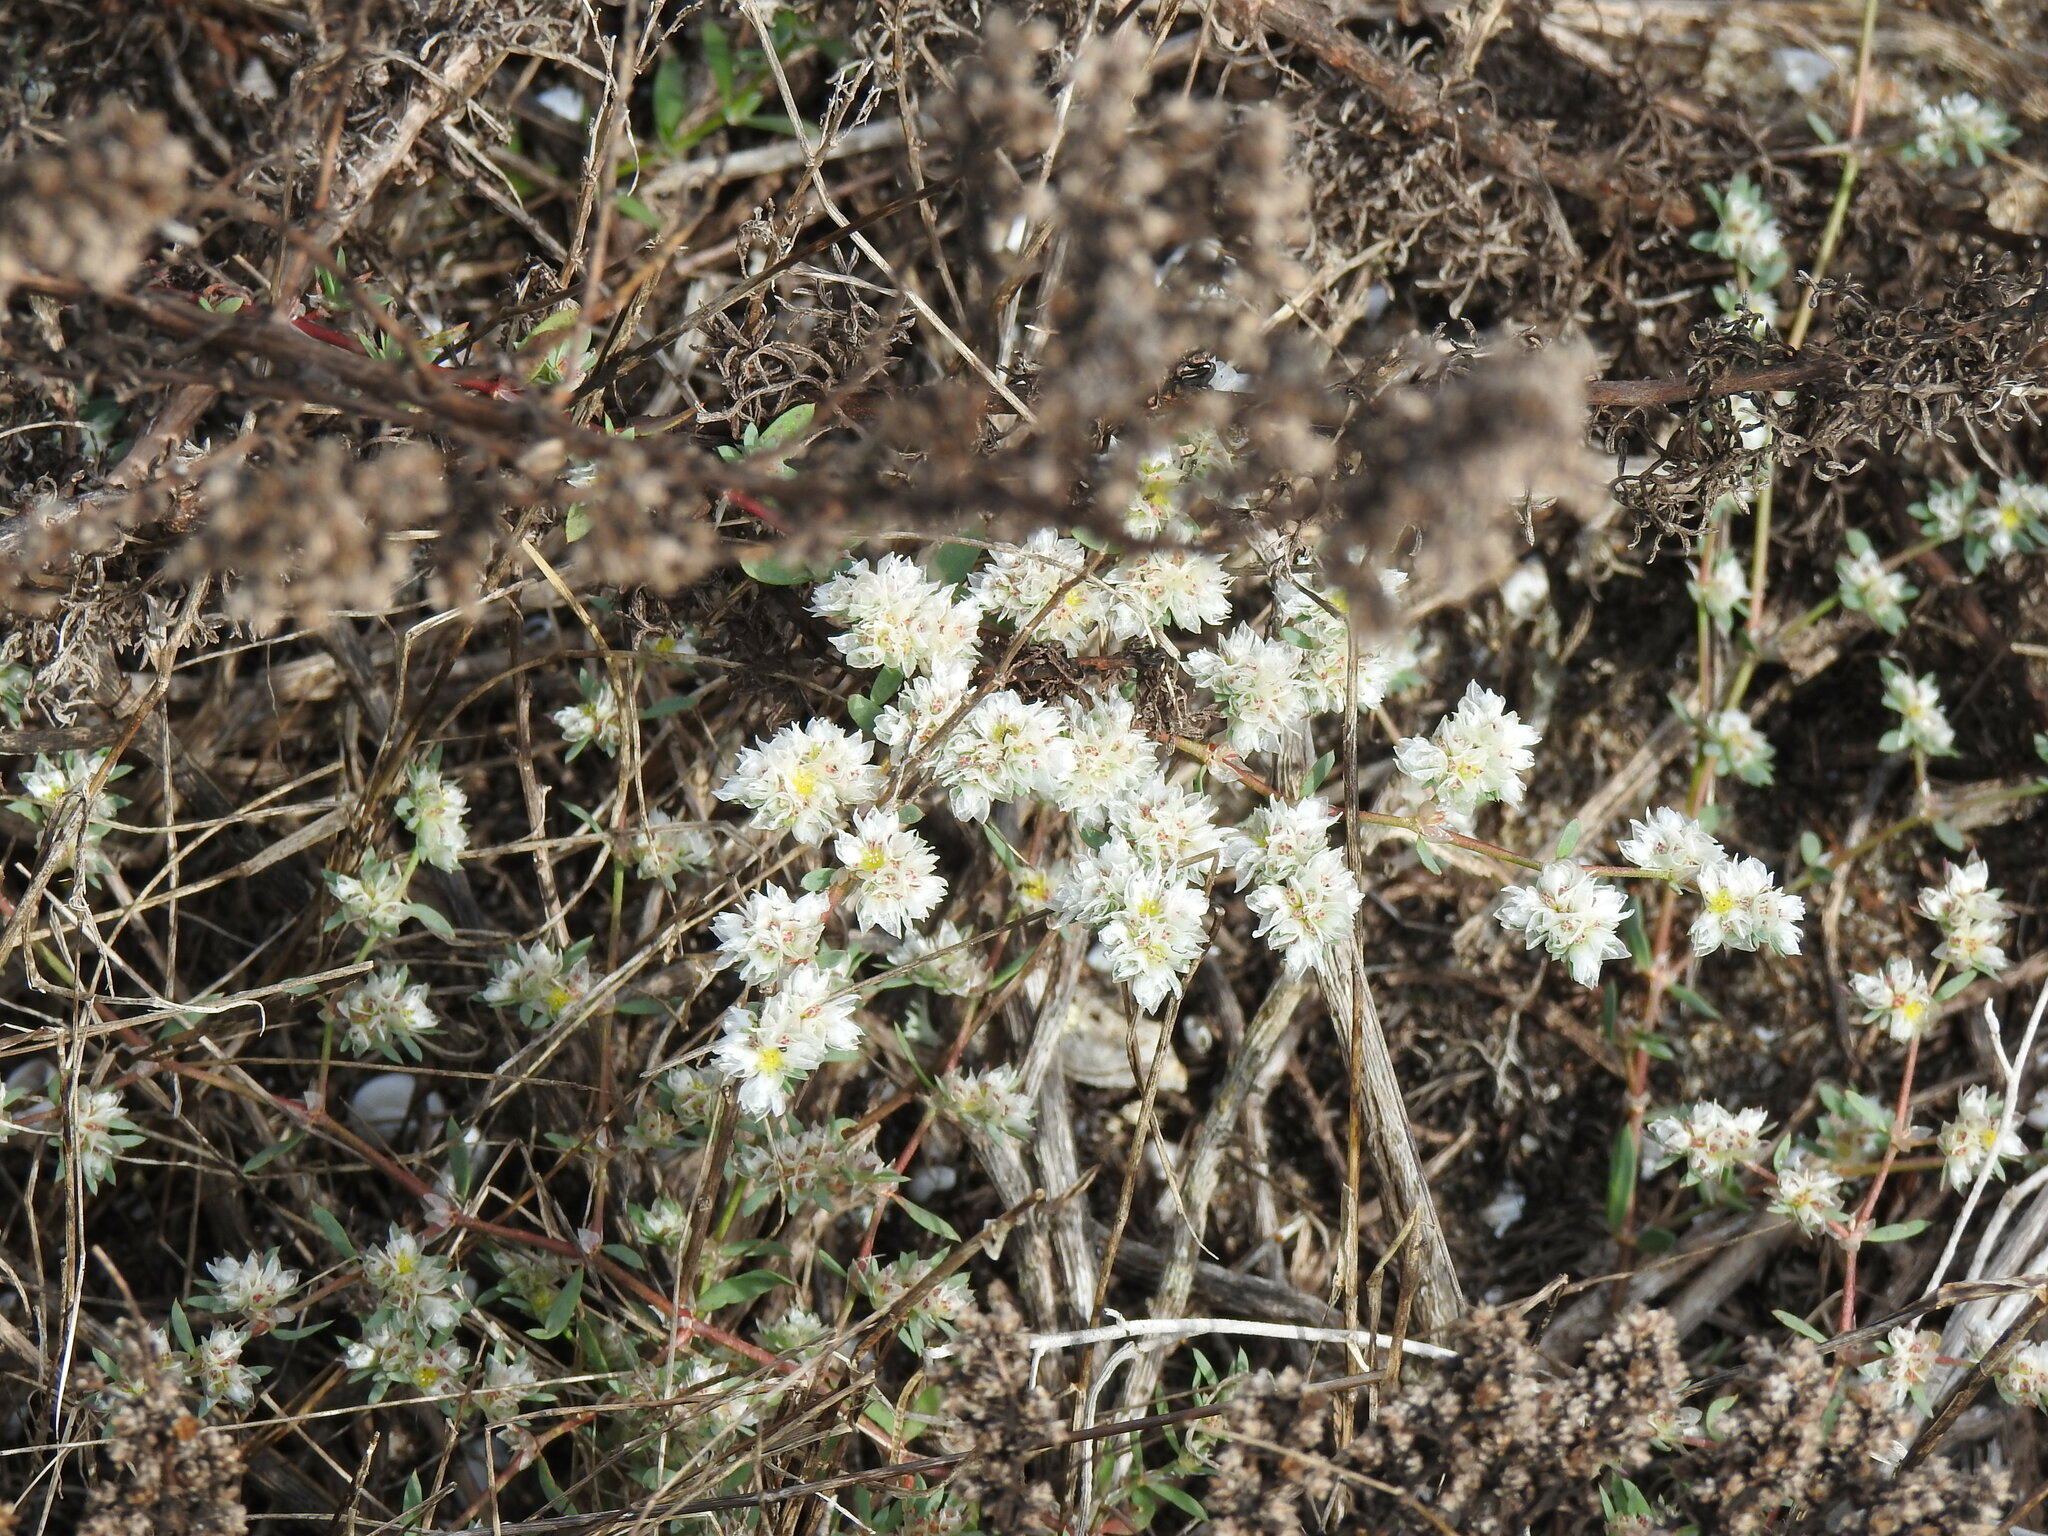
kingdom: Plantae
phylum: Tracheophyta
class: Magnoliopsida
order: Caryophyllales
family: Caryophyllaceae
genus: Paronychia
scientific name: Paronychia argentea
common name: Silver nailroot
